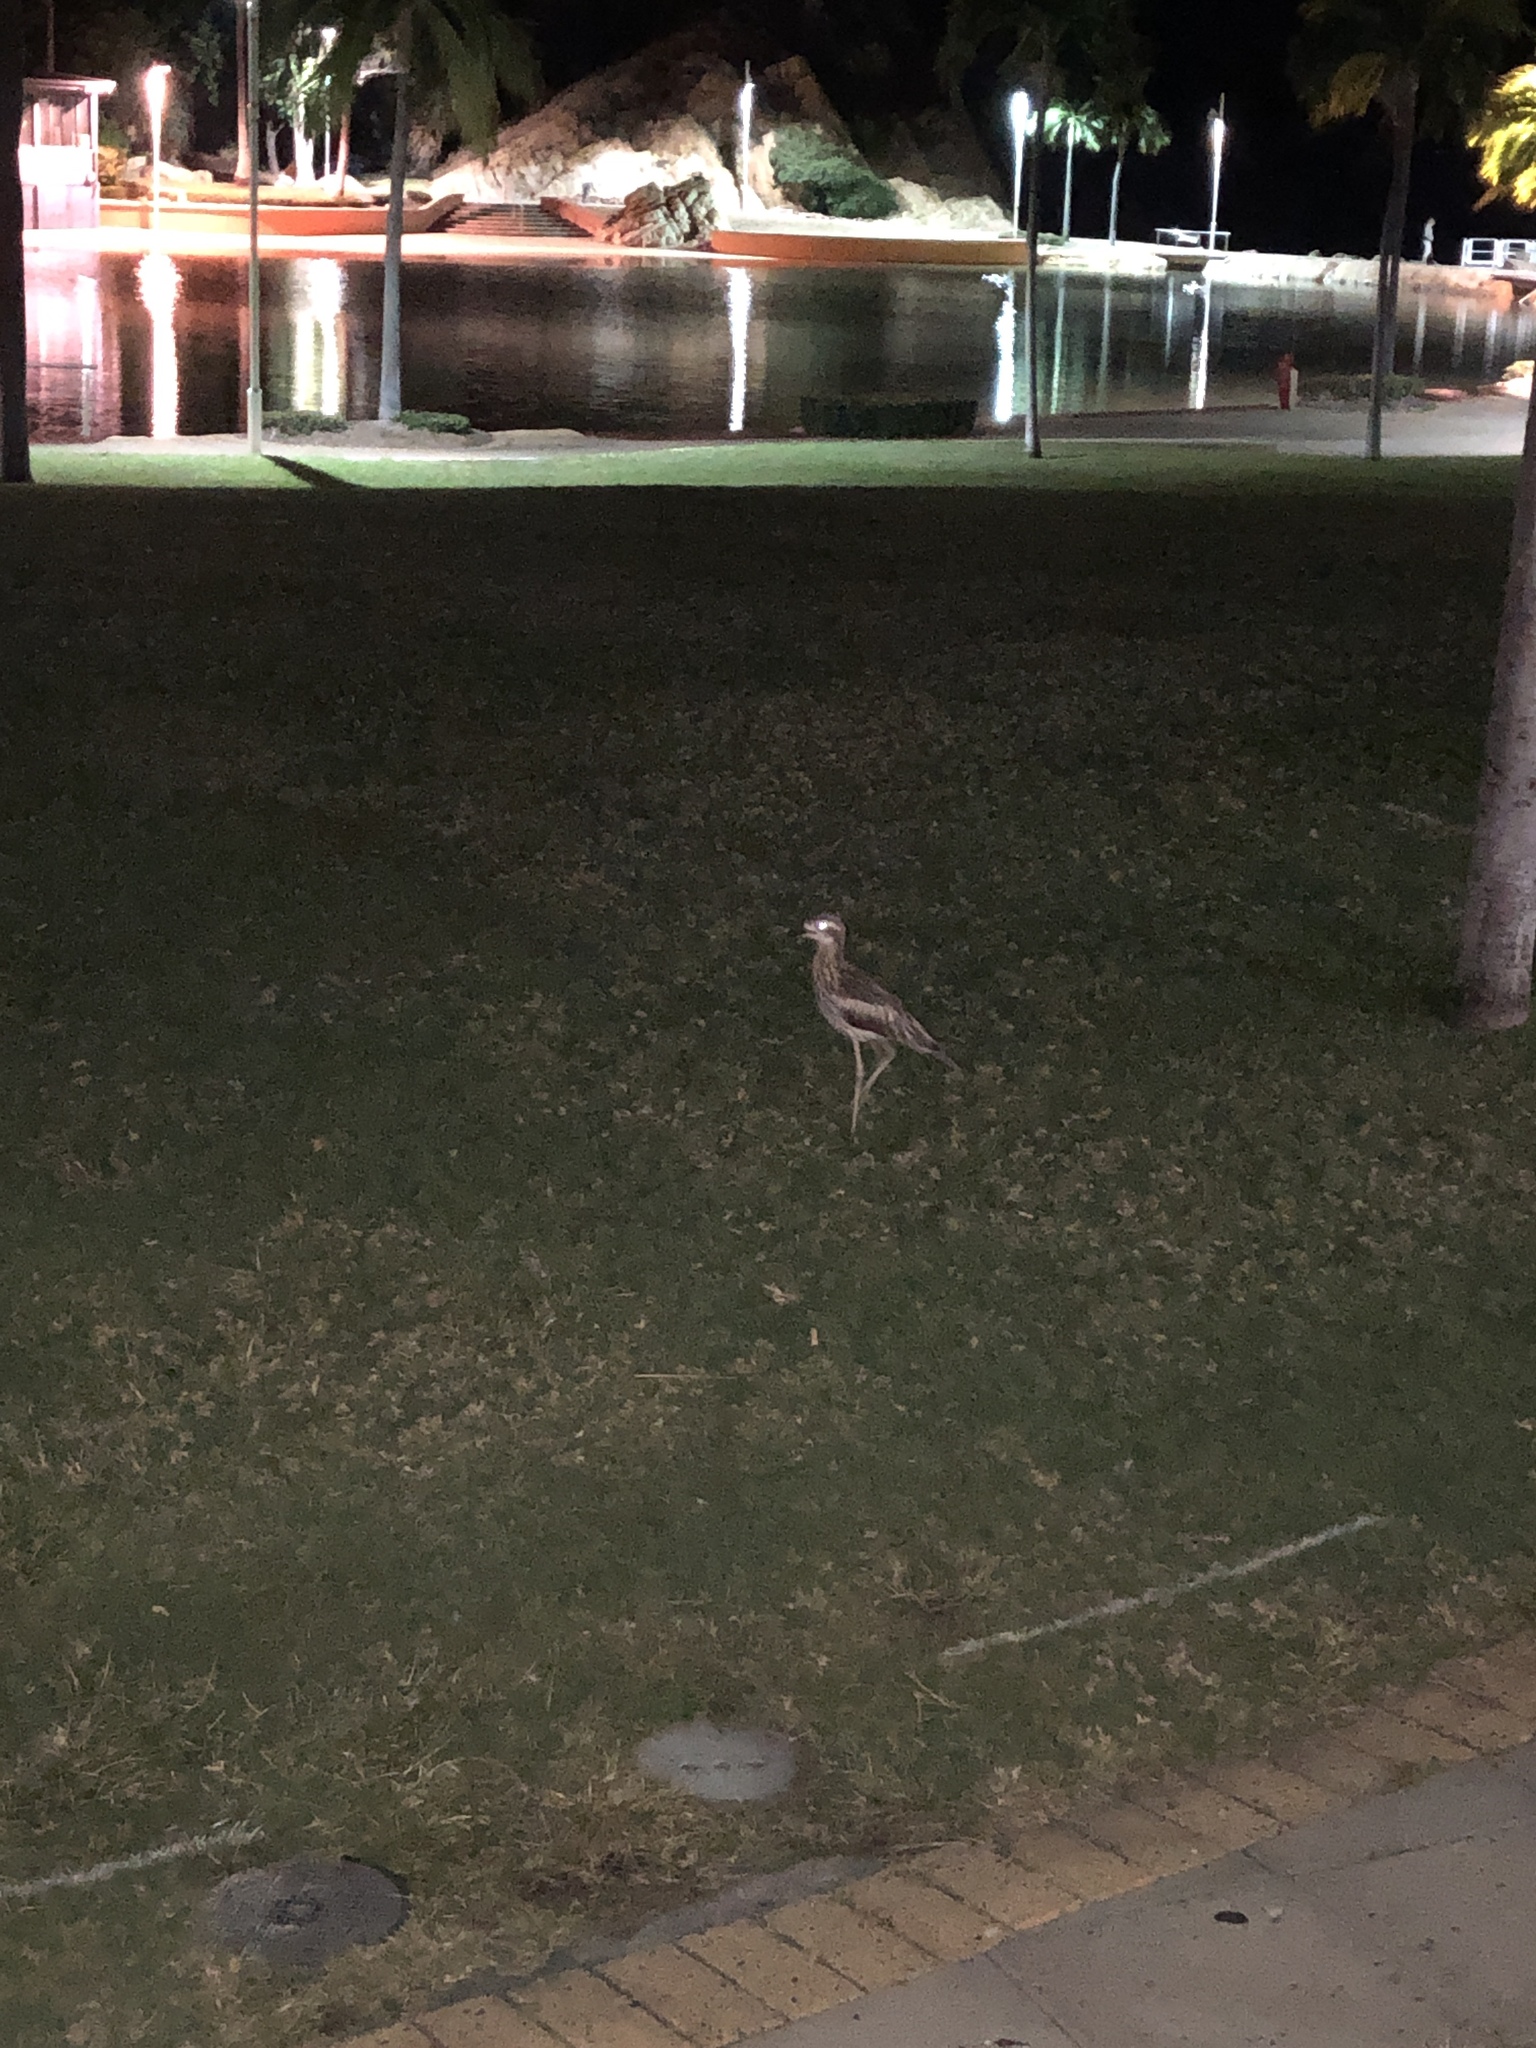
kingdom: Animalia
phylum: Chordata
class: Aves
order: Charadriiformes
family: Burhinidae
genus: Burhinus
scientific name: Burhinus grallarius
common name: Bush stone-curlew
